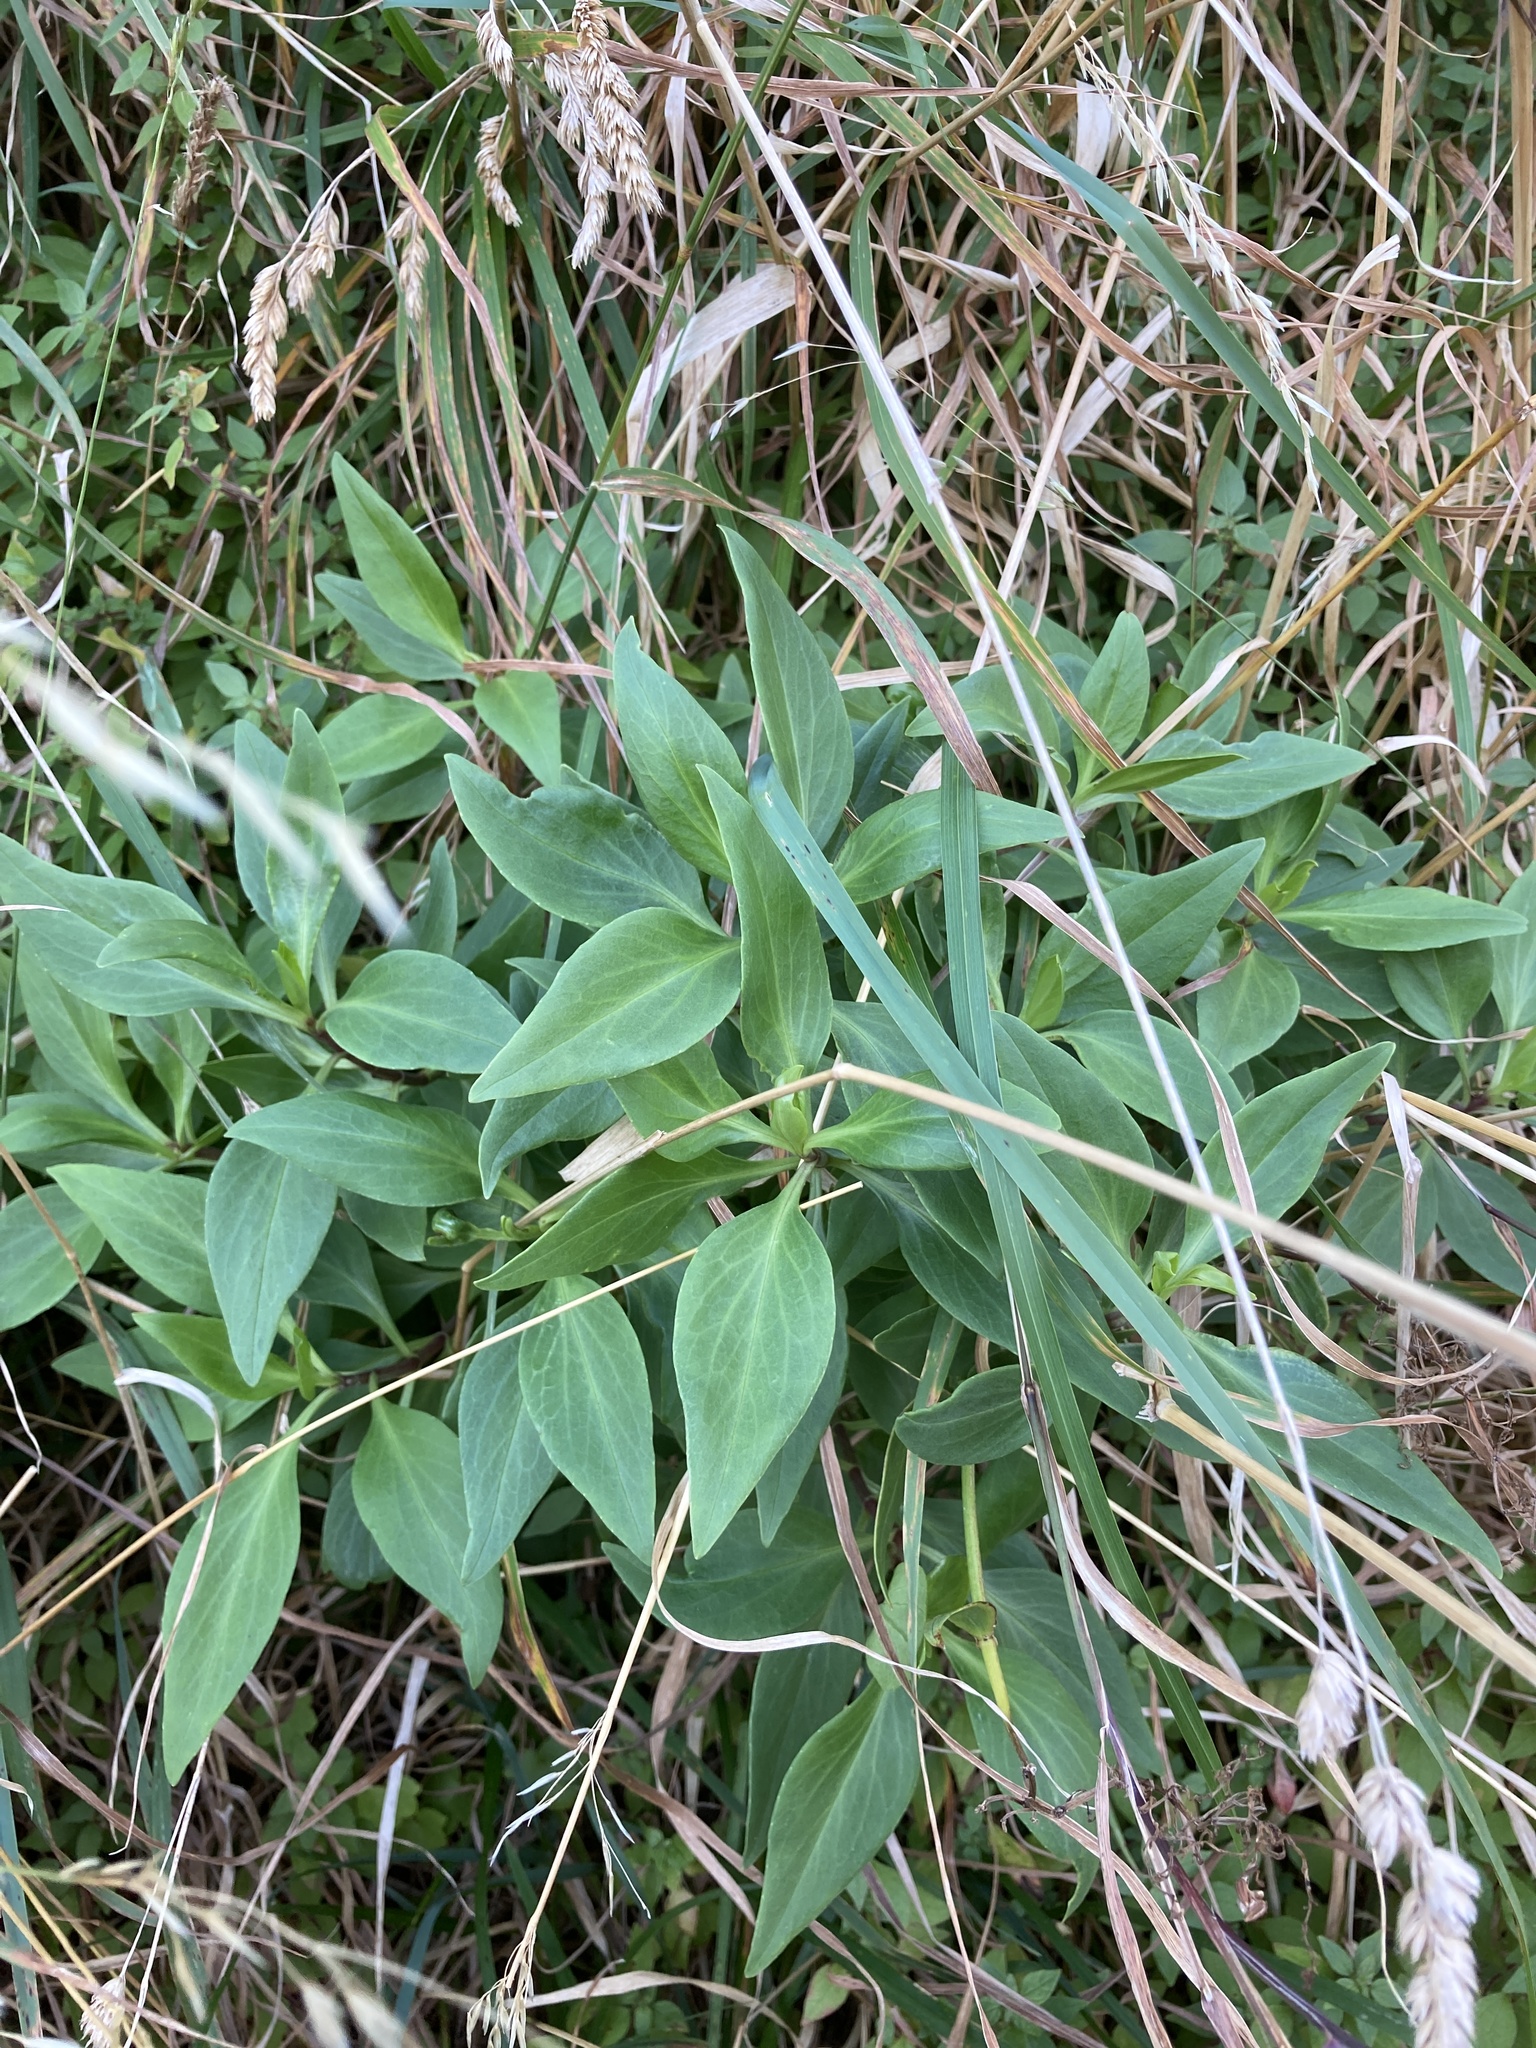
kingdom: Plantae
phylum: Tracheophyta
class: Magnoliopsida
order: Dipsacales
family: Caprifoliaceae
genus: Centranthus
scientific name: Centranthus ruber
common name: Red valerian
